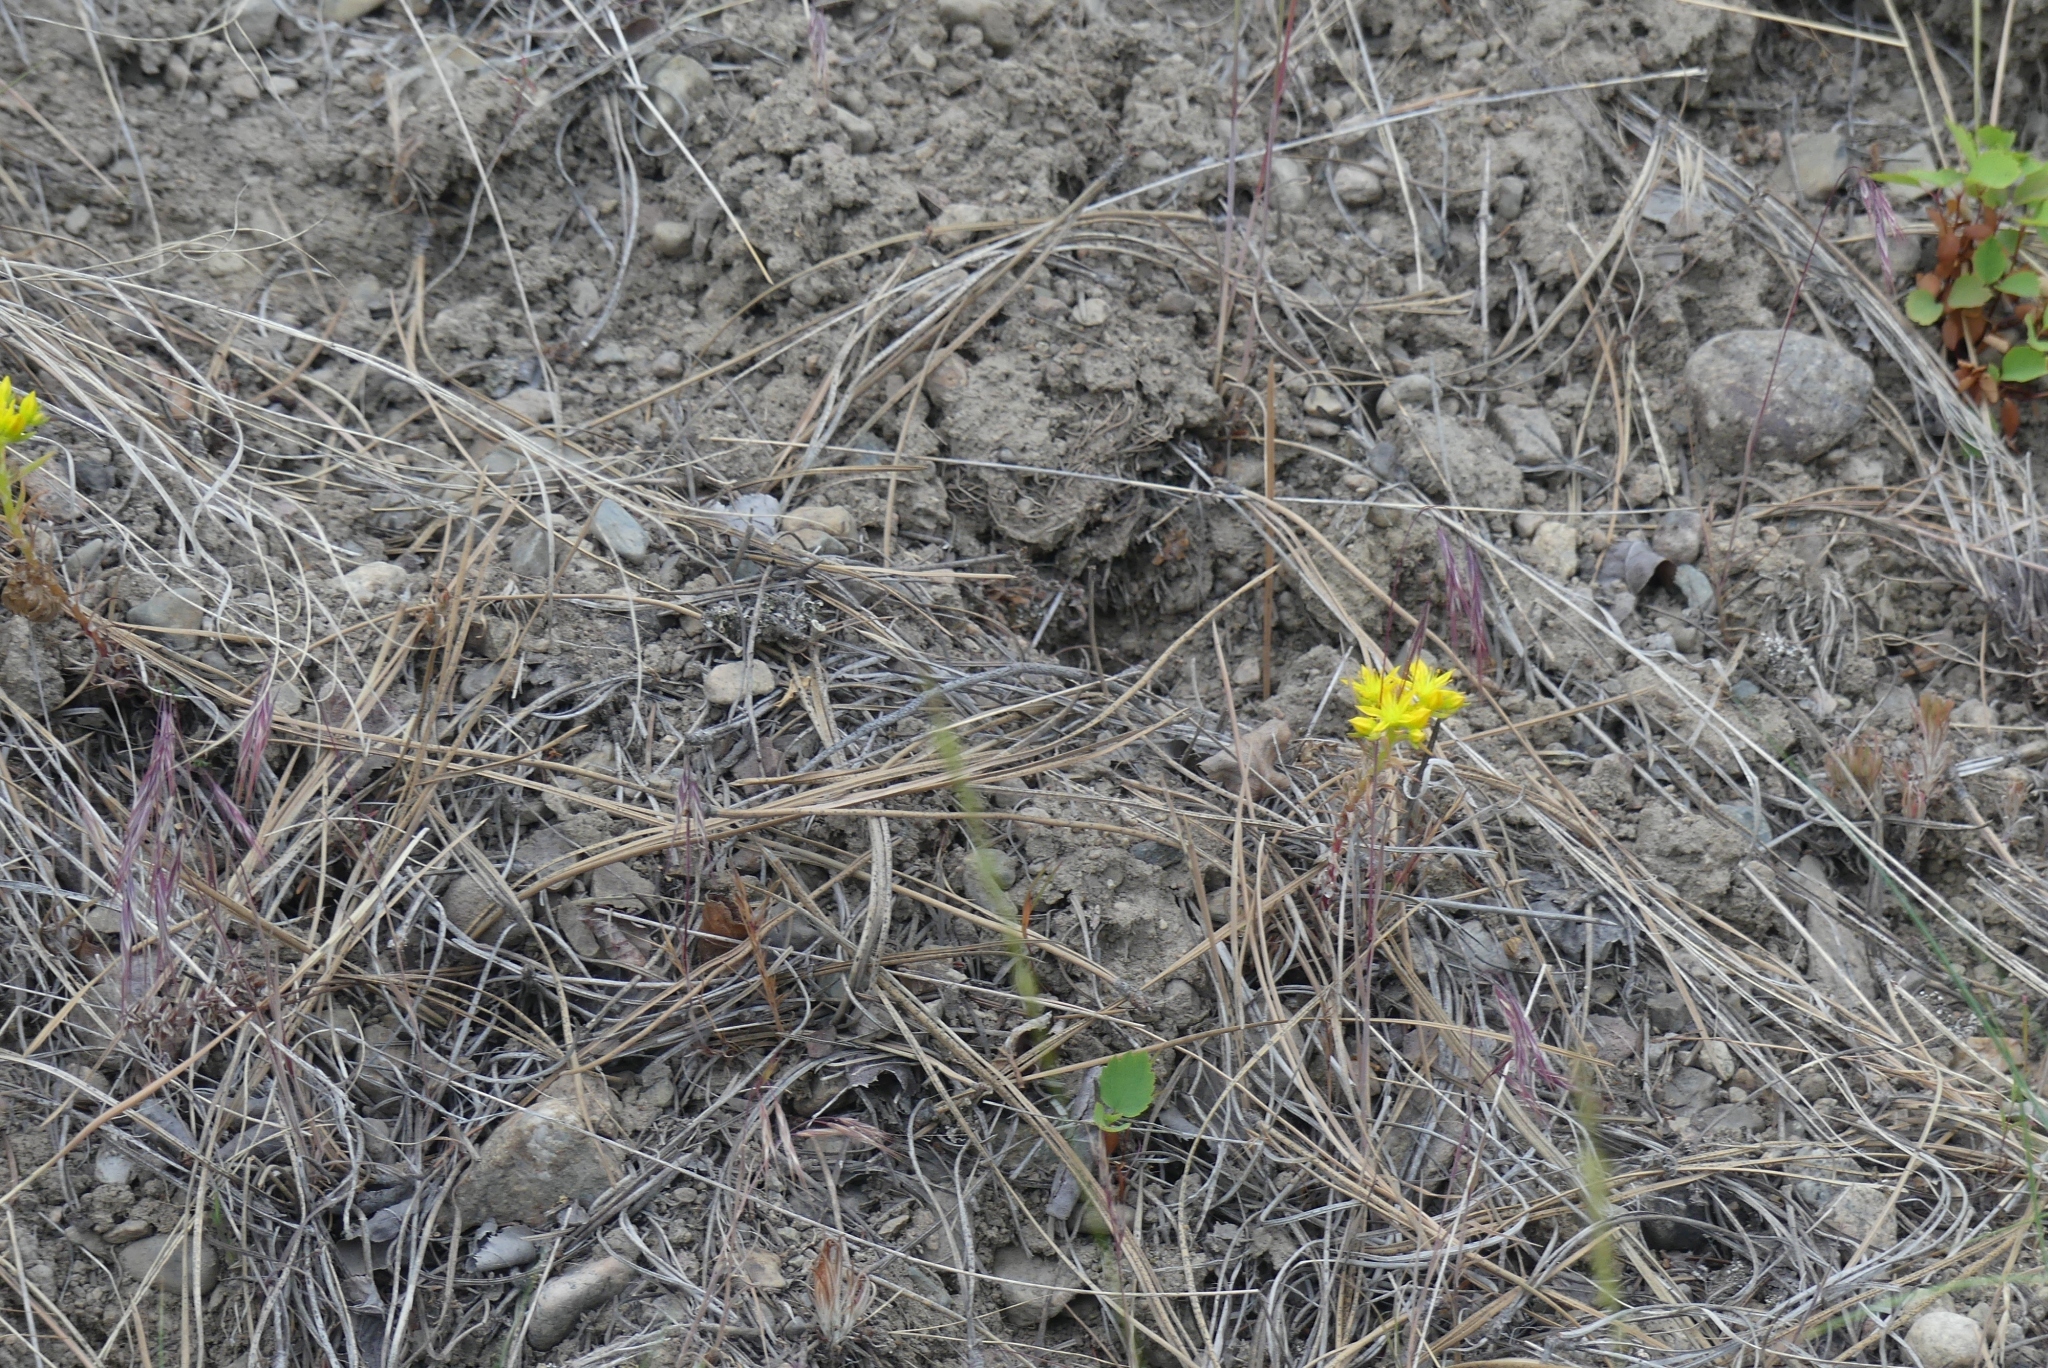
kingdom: Plantae
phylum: Tracheophyta
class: Magnoliopsida
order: Saxifragales
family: Crassulaceae
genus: Sedum
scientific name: Sedum stenopetalum
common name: Narrow-petaled stonecrop
